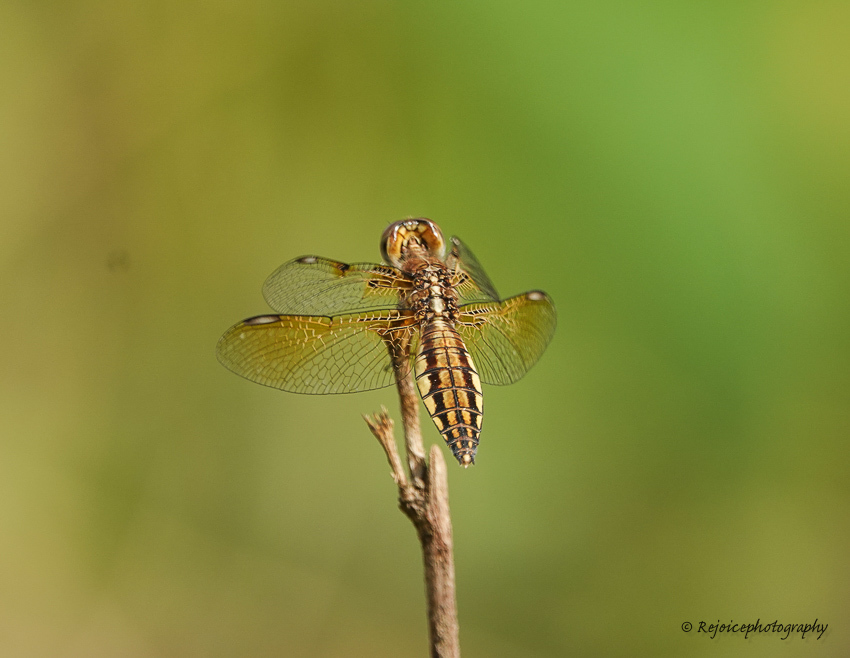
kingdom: Animalia
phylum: Arthropoda
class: Insecta
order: Odonata
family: Libellulidae
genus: Palpopleura
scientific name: Palpopleura sexmaculata
